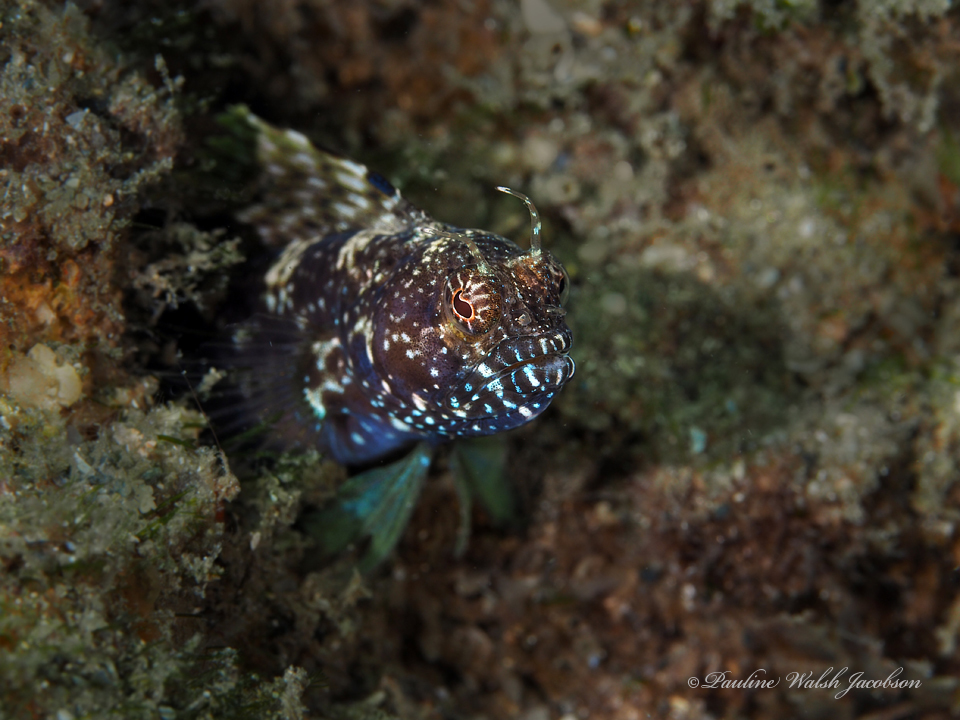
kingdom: Animalia
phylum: Chordata
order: Perciformes
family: Chaenopsidae
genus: Emblemaria
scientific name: Emblemaria pandionis
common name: Sailfin blenny
